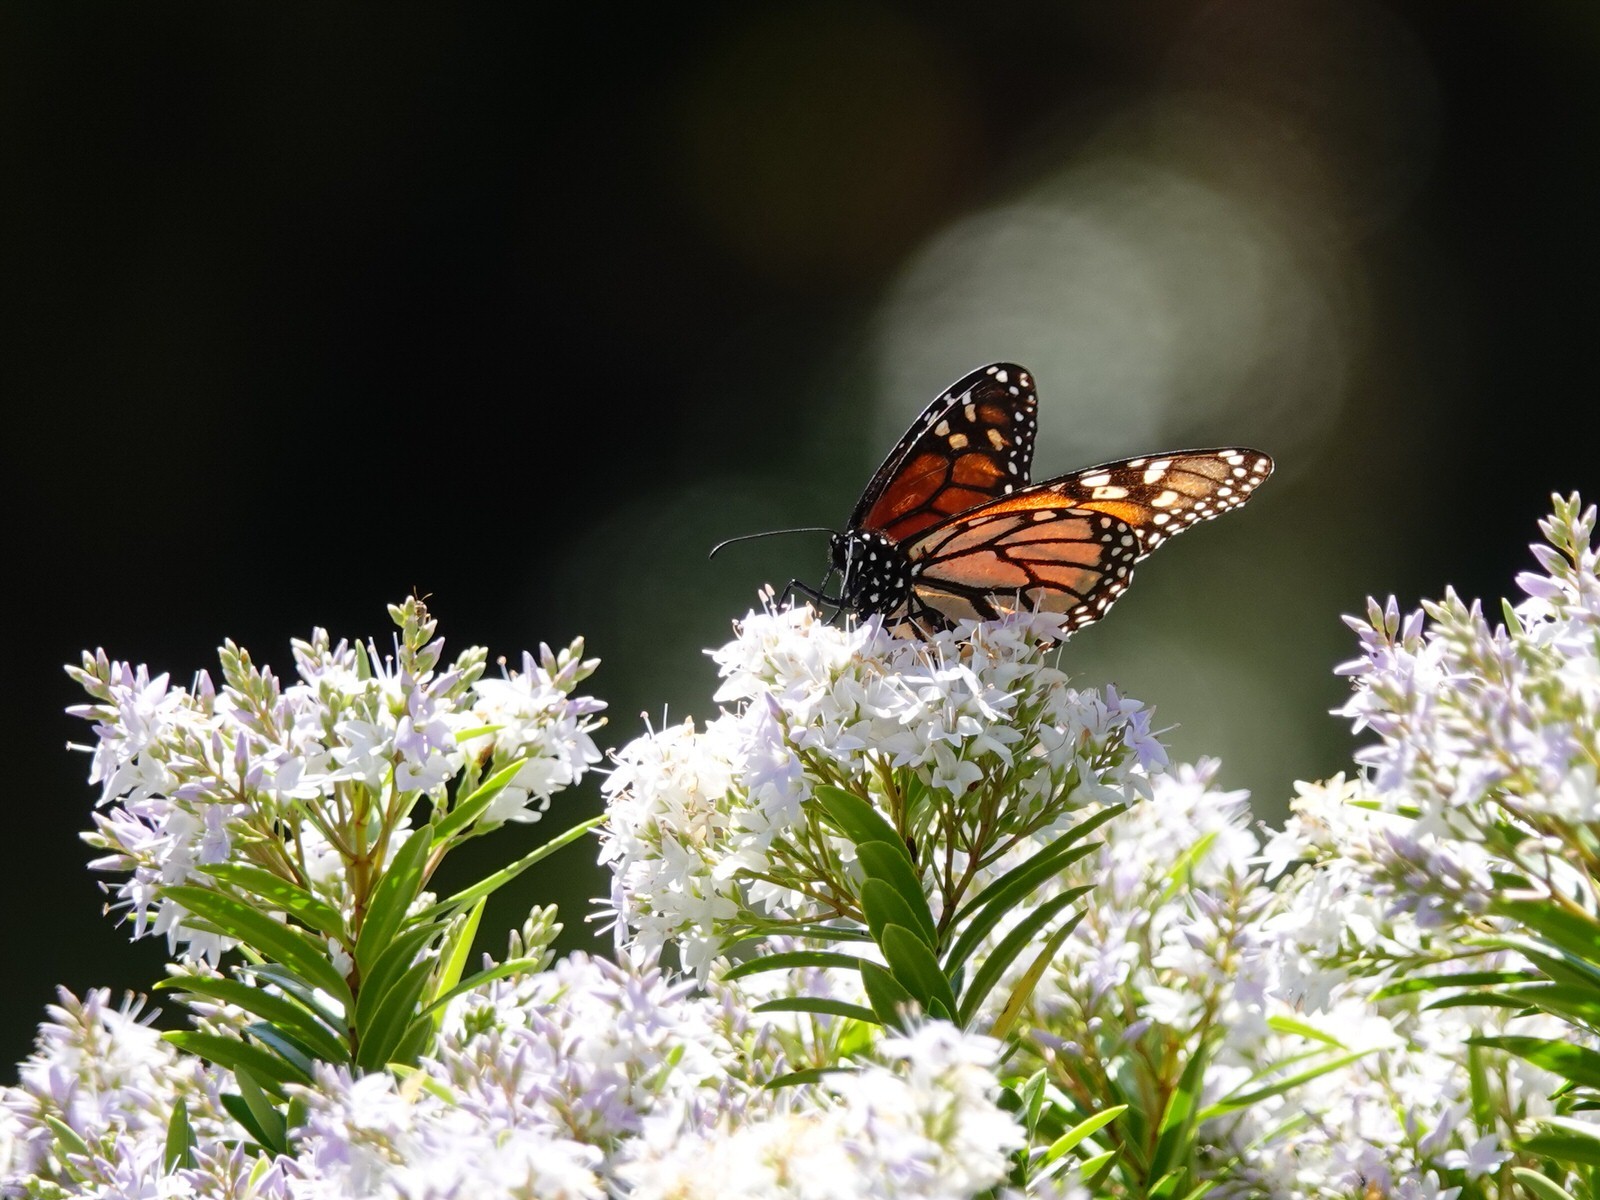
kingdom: Animalia
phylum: Arthropoda
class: Insecta
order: Lepidoptera
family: Nymphalidae
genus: Danaus
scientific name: Danaus plexippus
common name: Monarch
